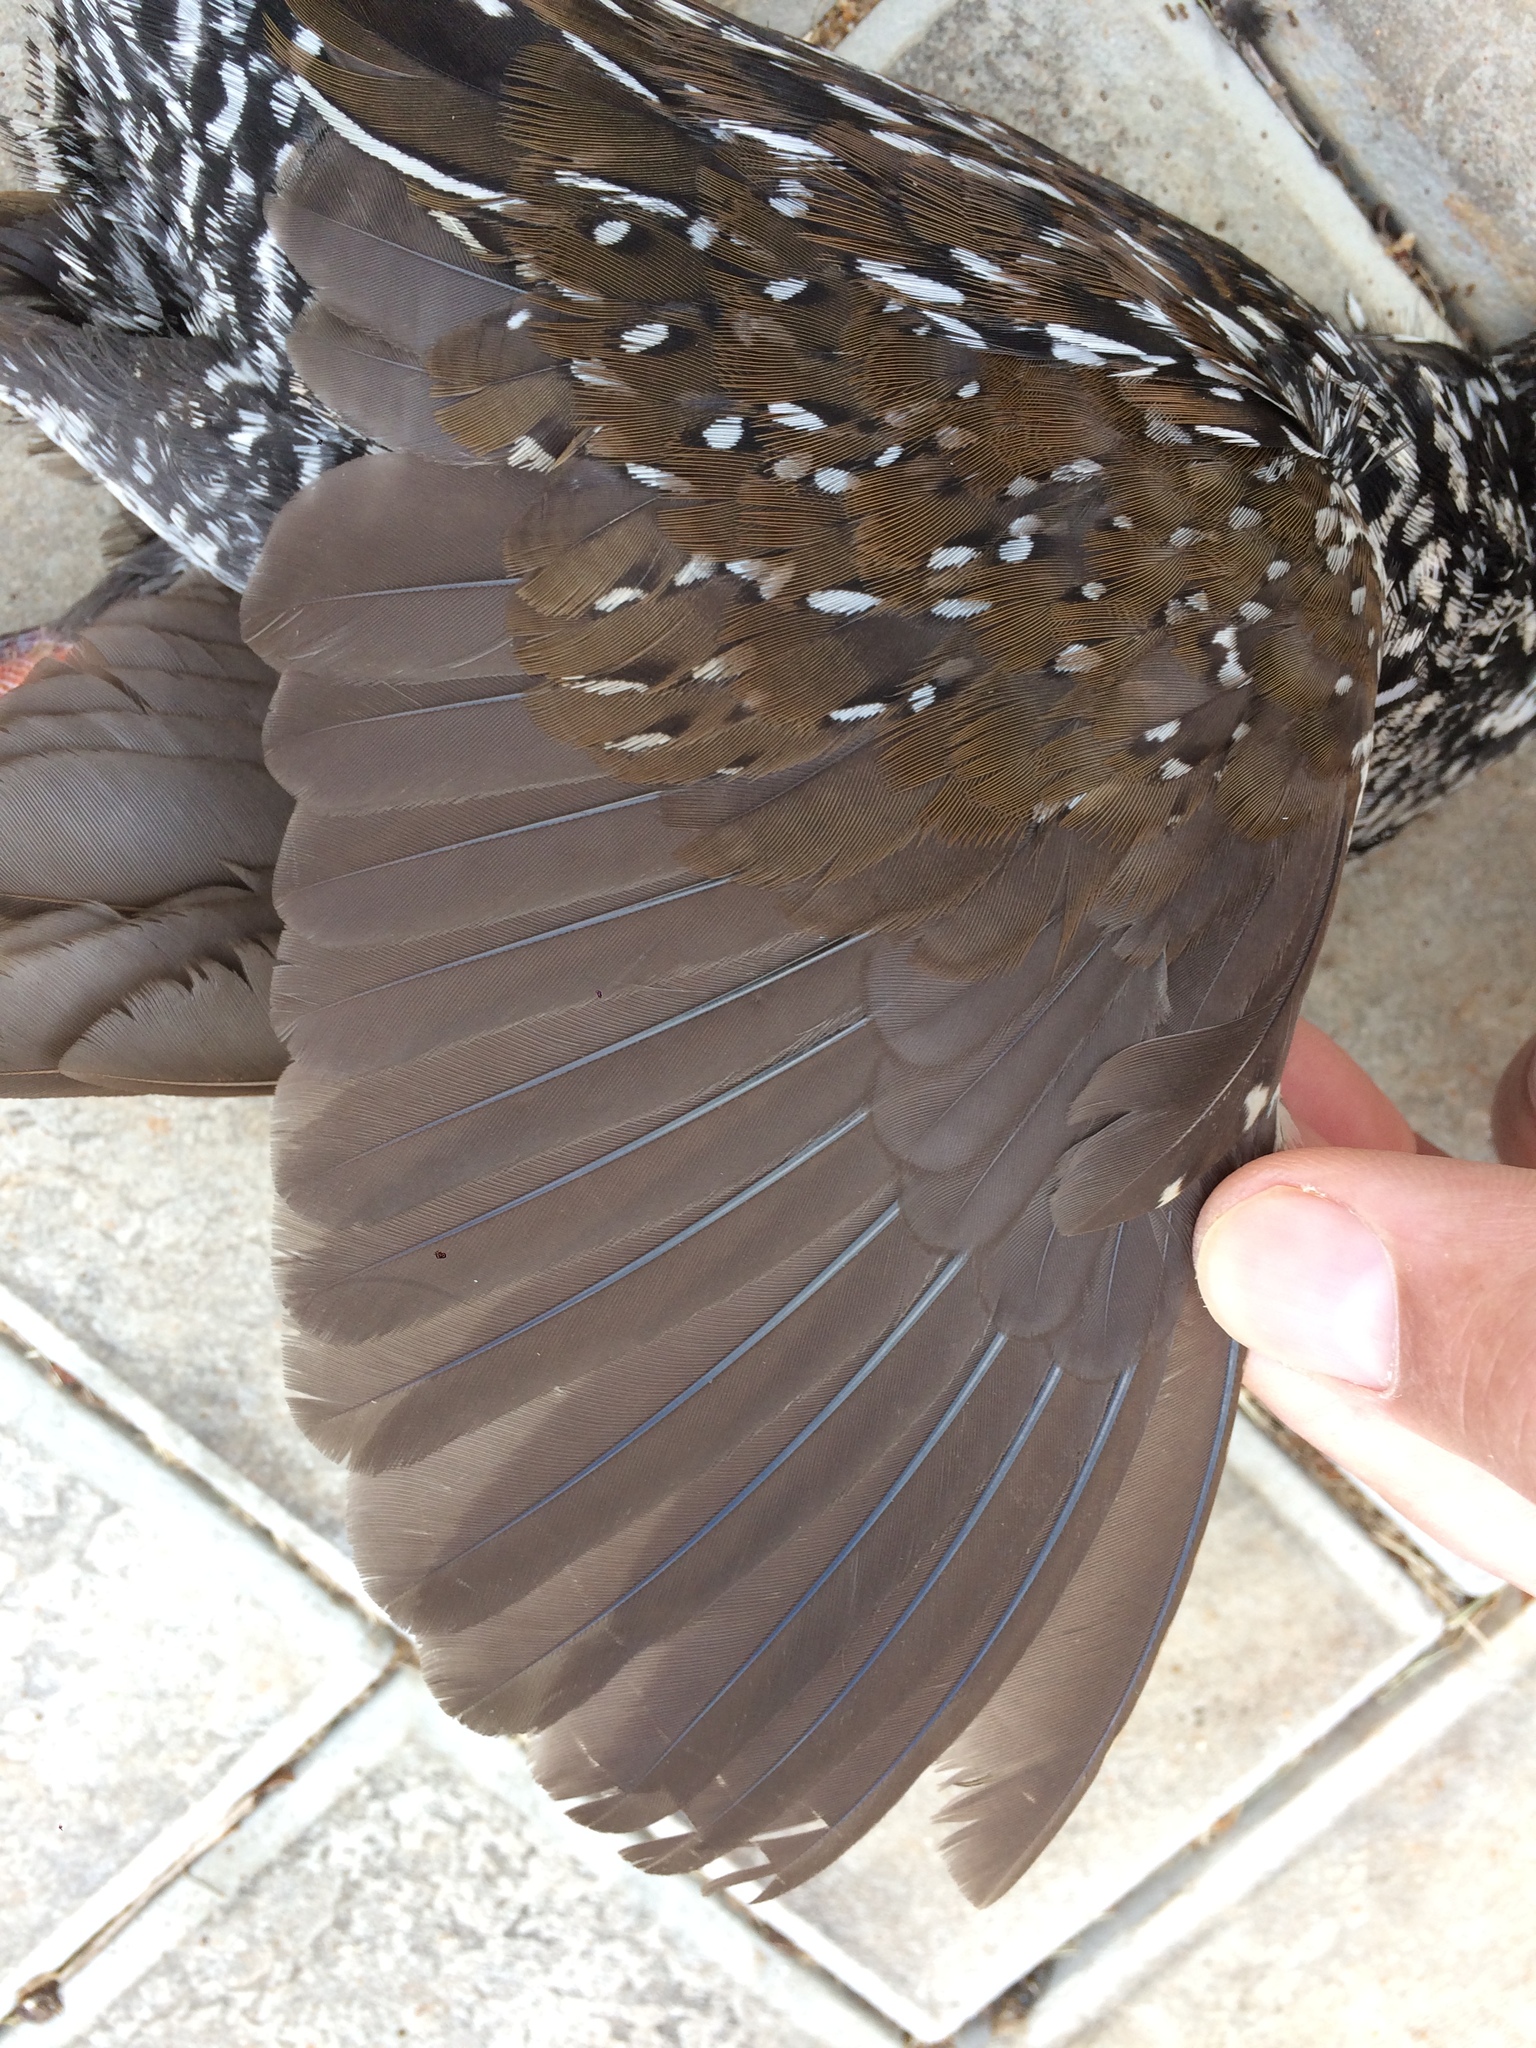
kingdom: Animalia
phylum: Chordata
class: Aves
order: Gruiformes
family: Rallidae
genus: Pardirallus
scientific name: Pardirallus maculatus
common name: Spotted rail
